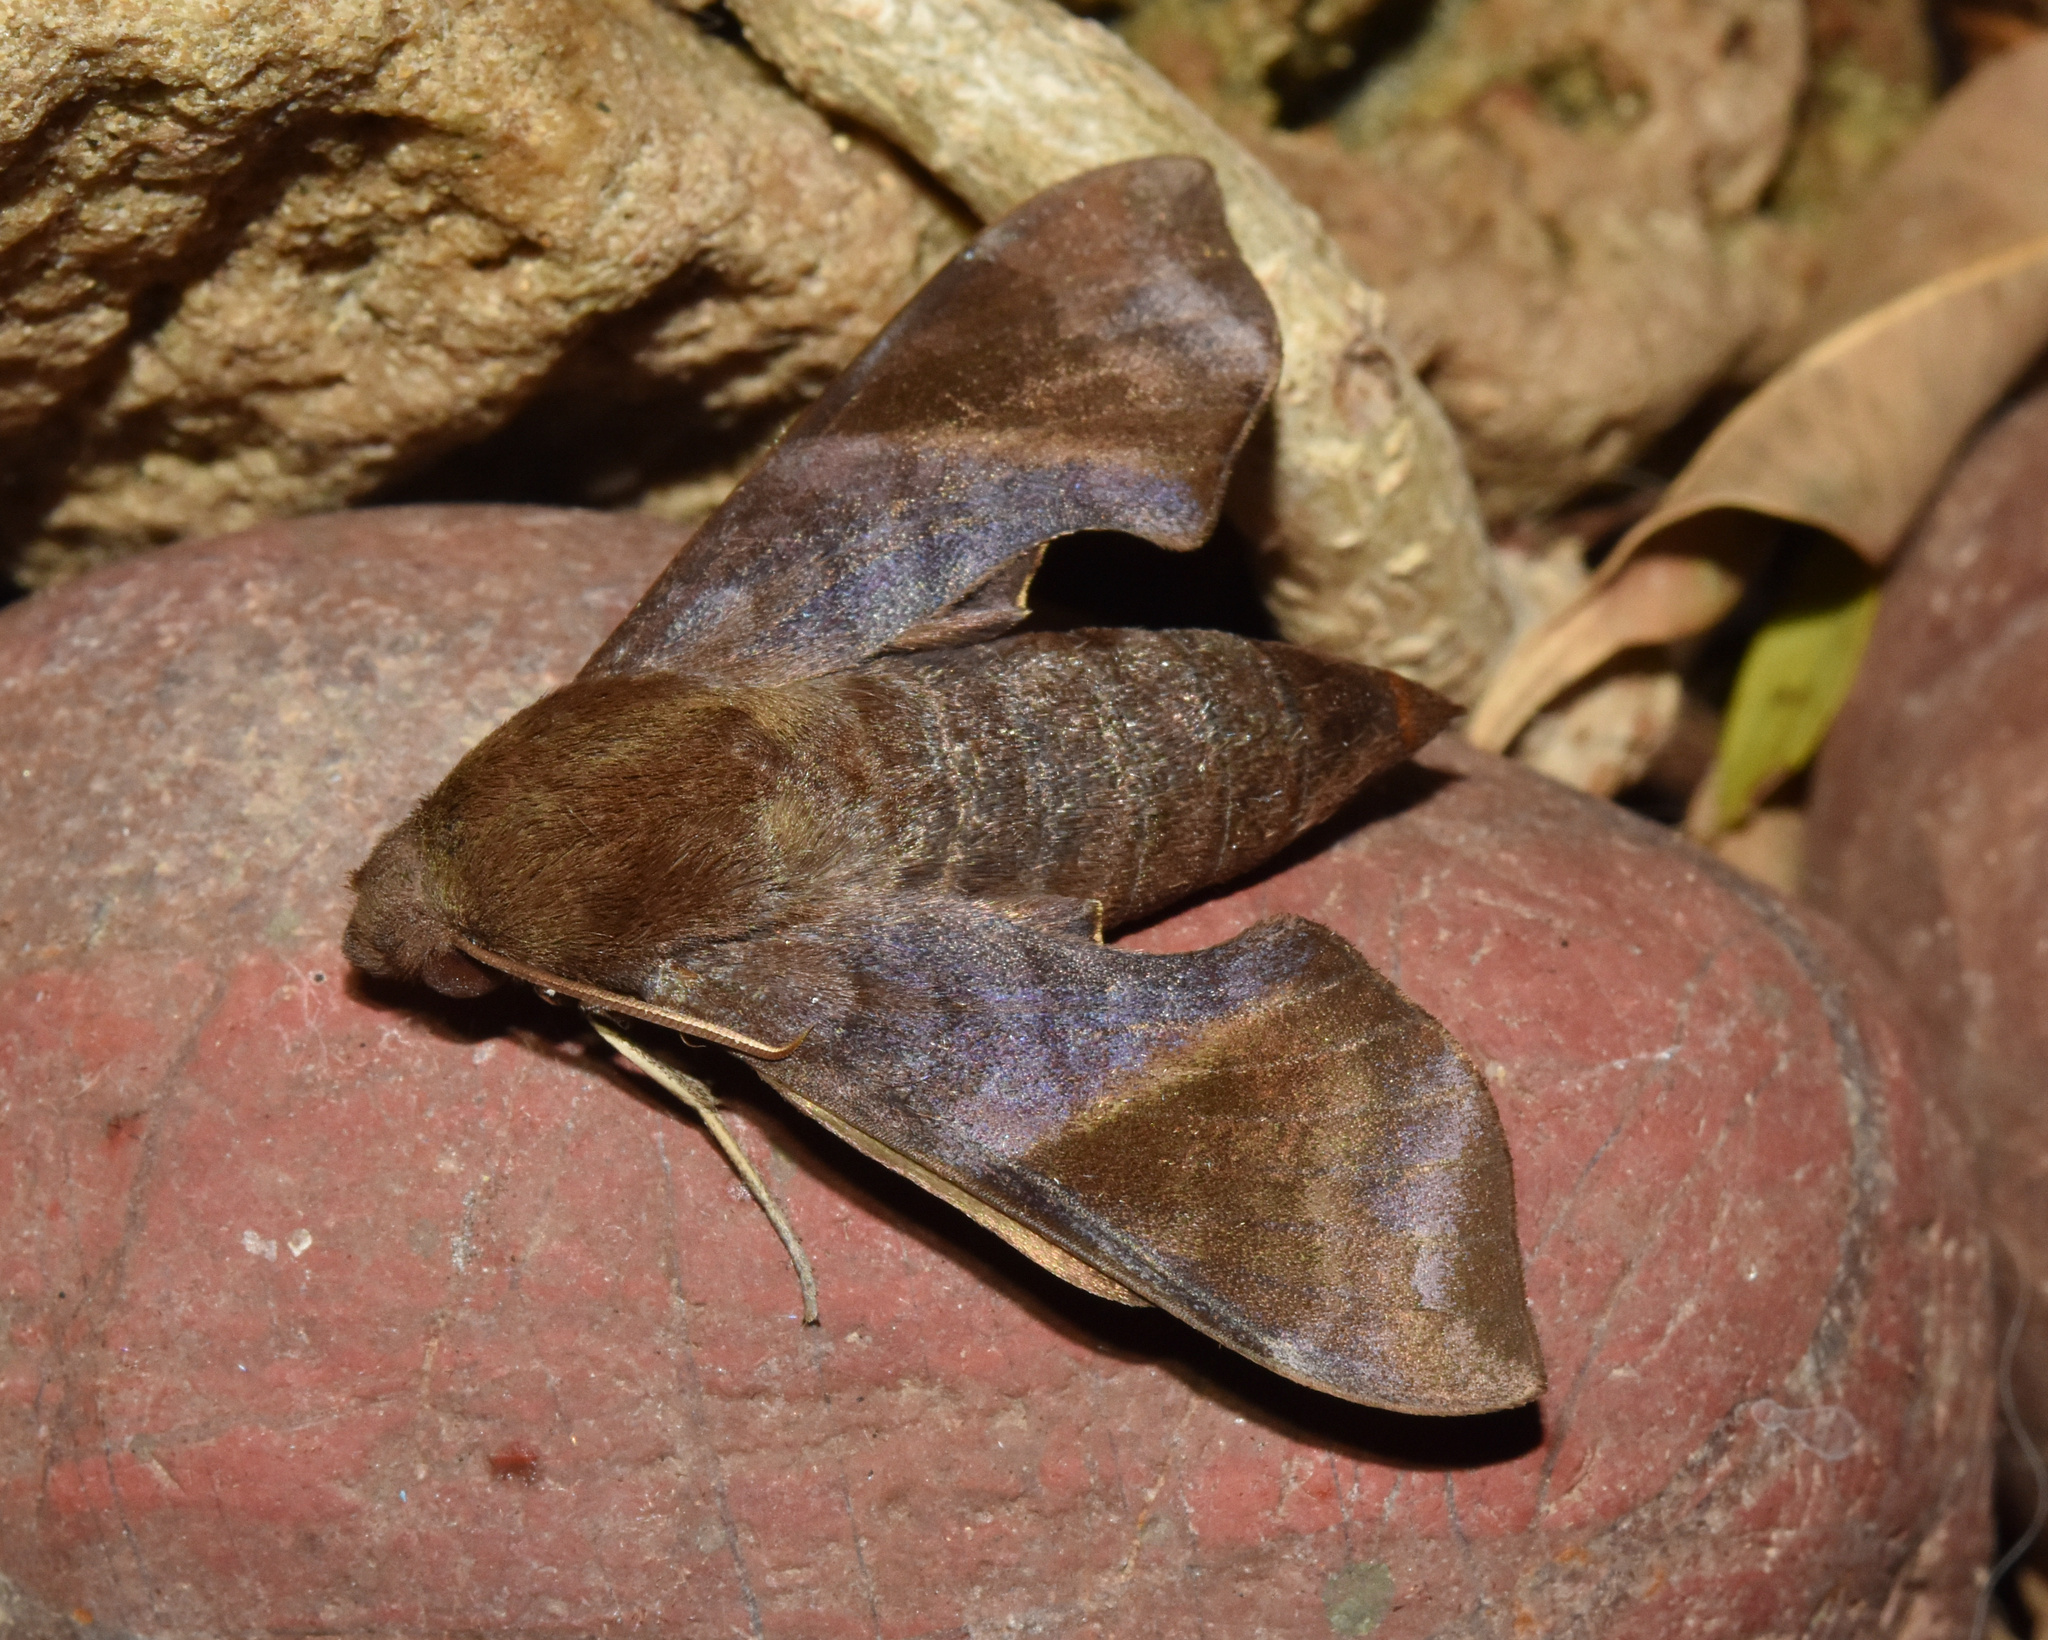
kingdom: Animalia
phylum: Arthropoda
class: Insecta
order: Lepidoptera
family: Sphingidae
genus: Temnora
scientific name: Temnora marginata
